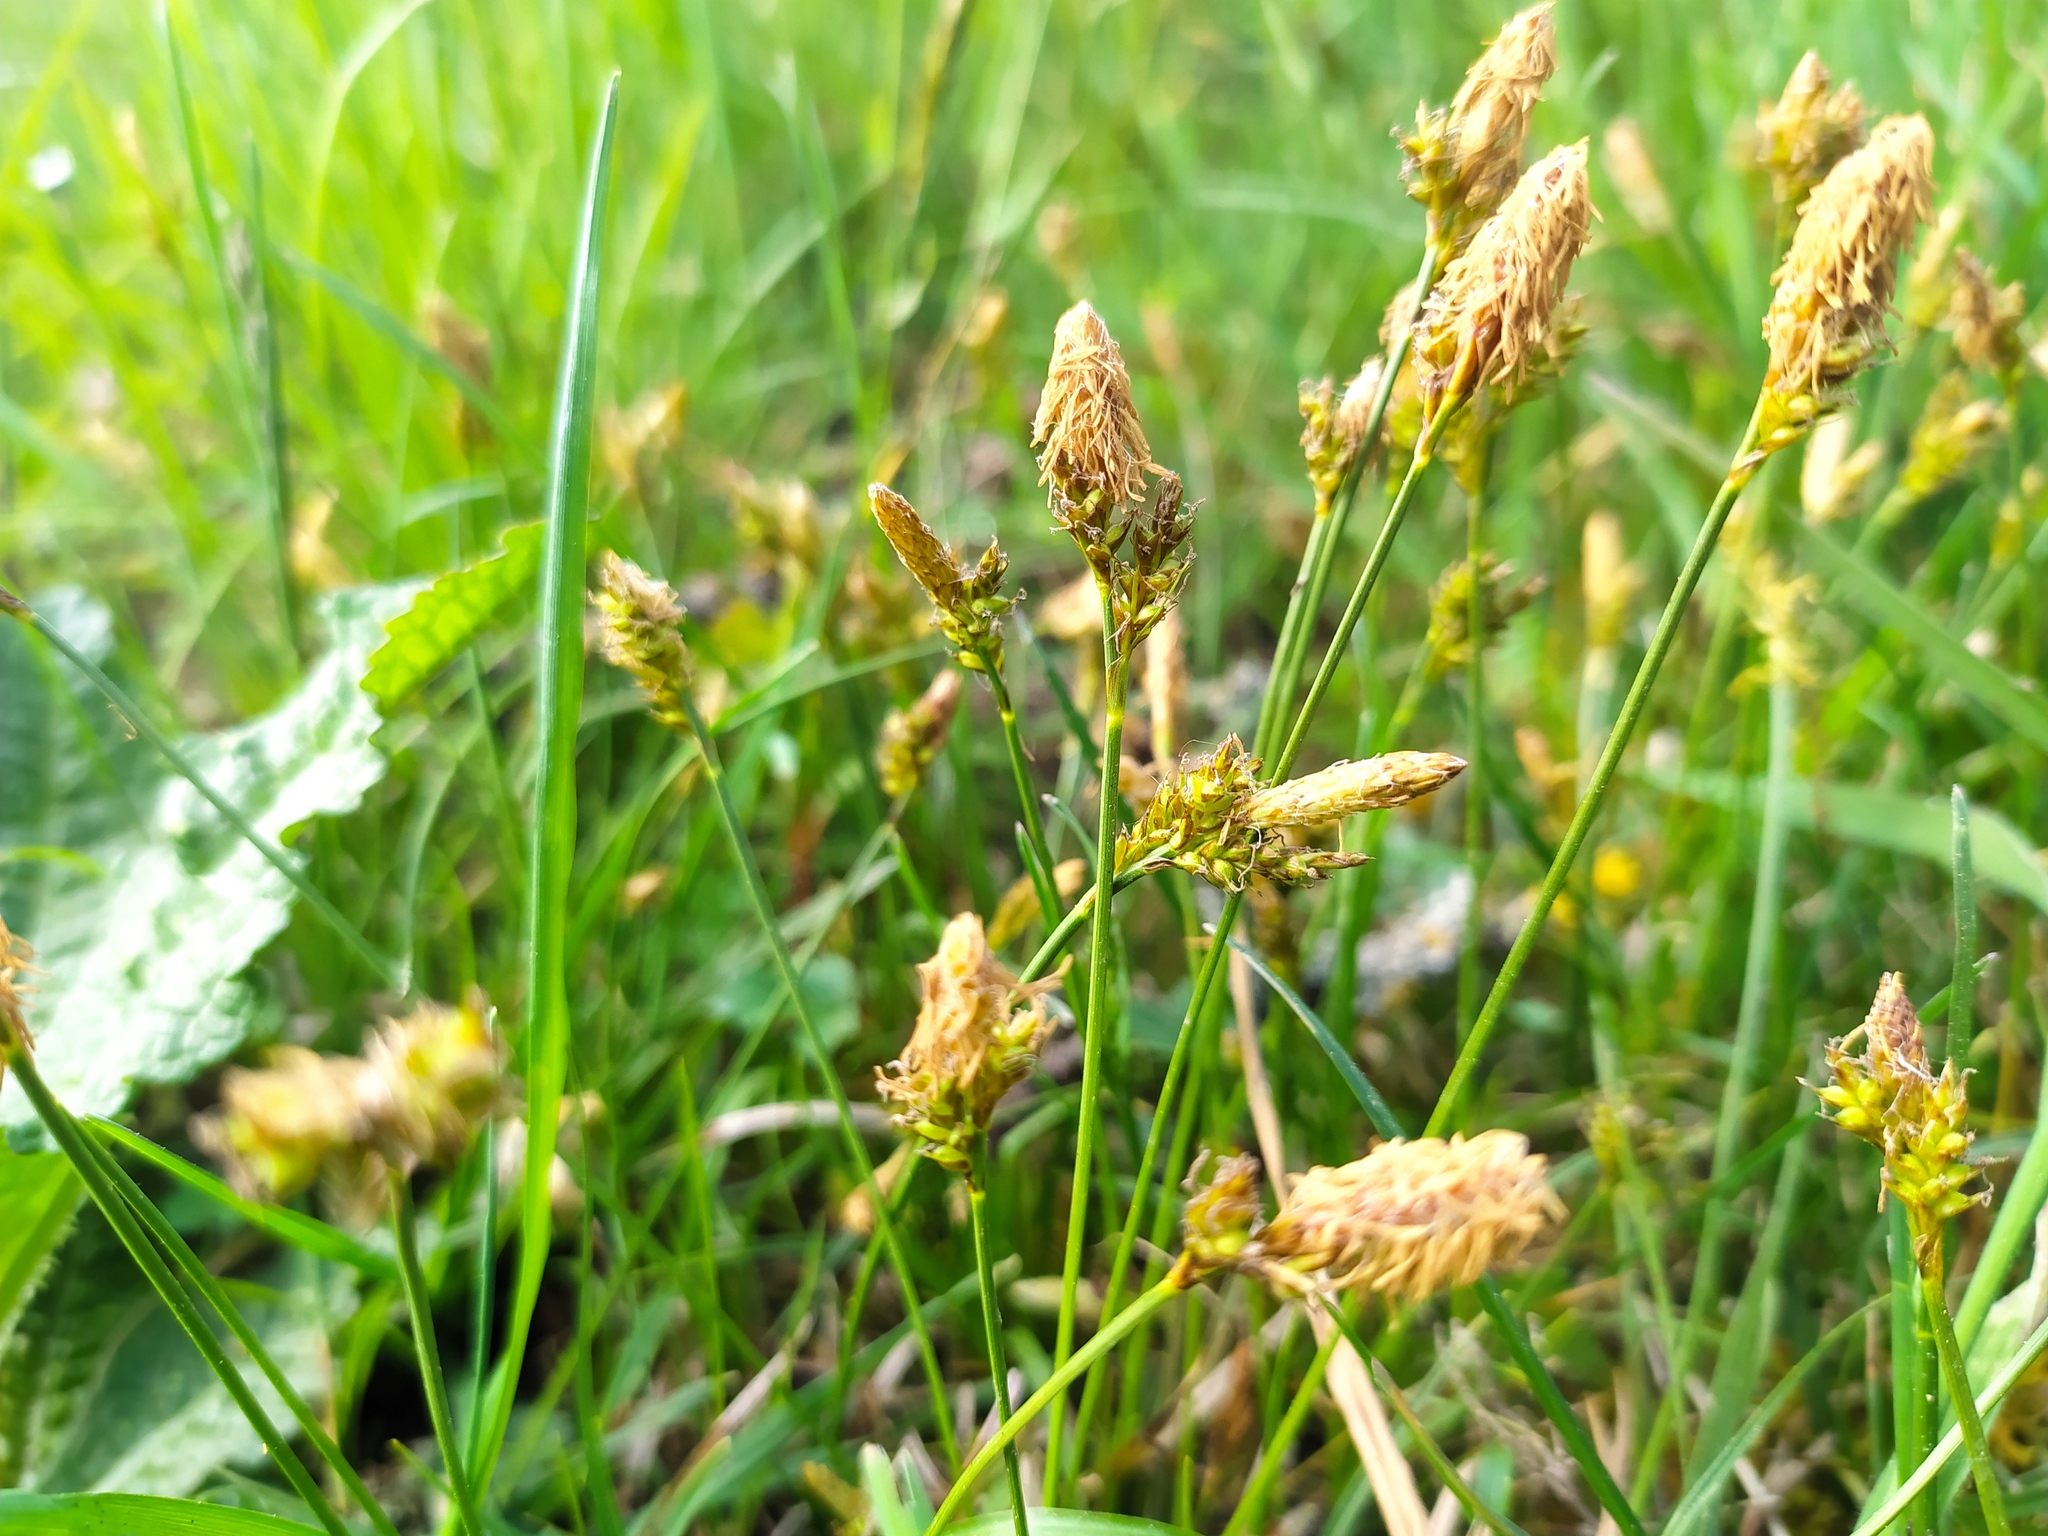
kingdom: Plantae
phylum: Tracheophyta
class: Liliopsida
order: Poales
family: Cyperaceae
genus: Carex
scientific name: Carex caryophyllea
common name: Spring sedge
